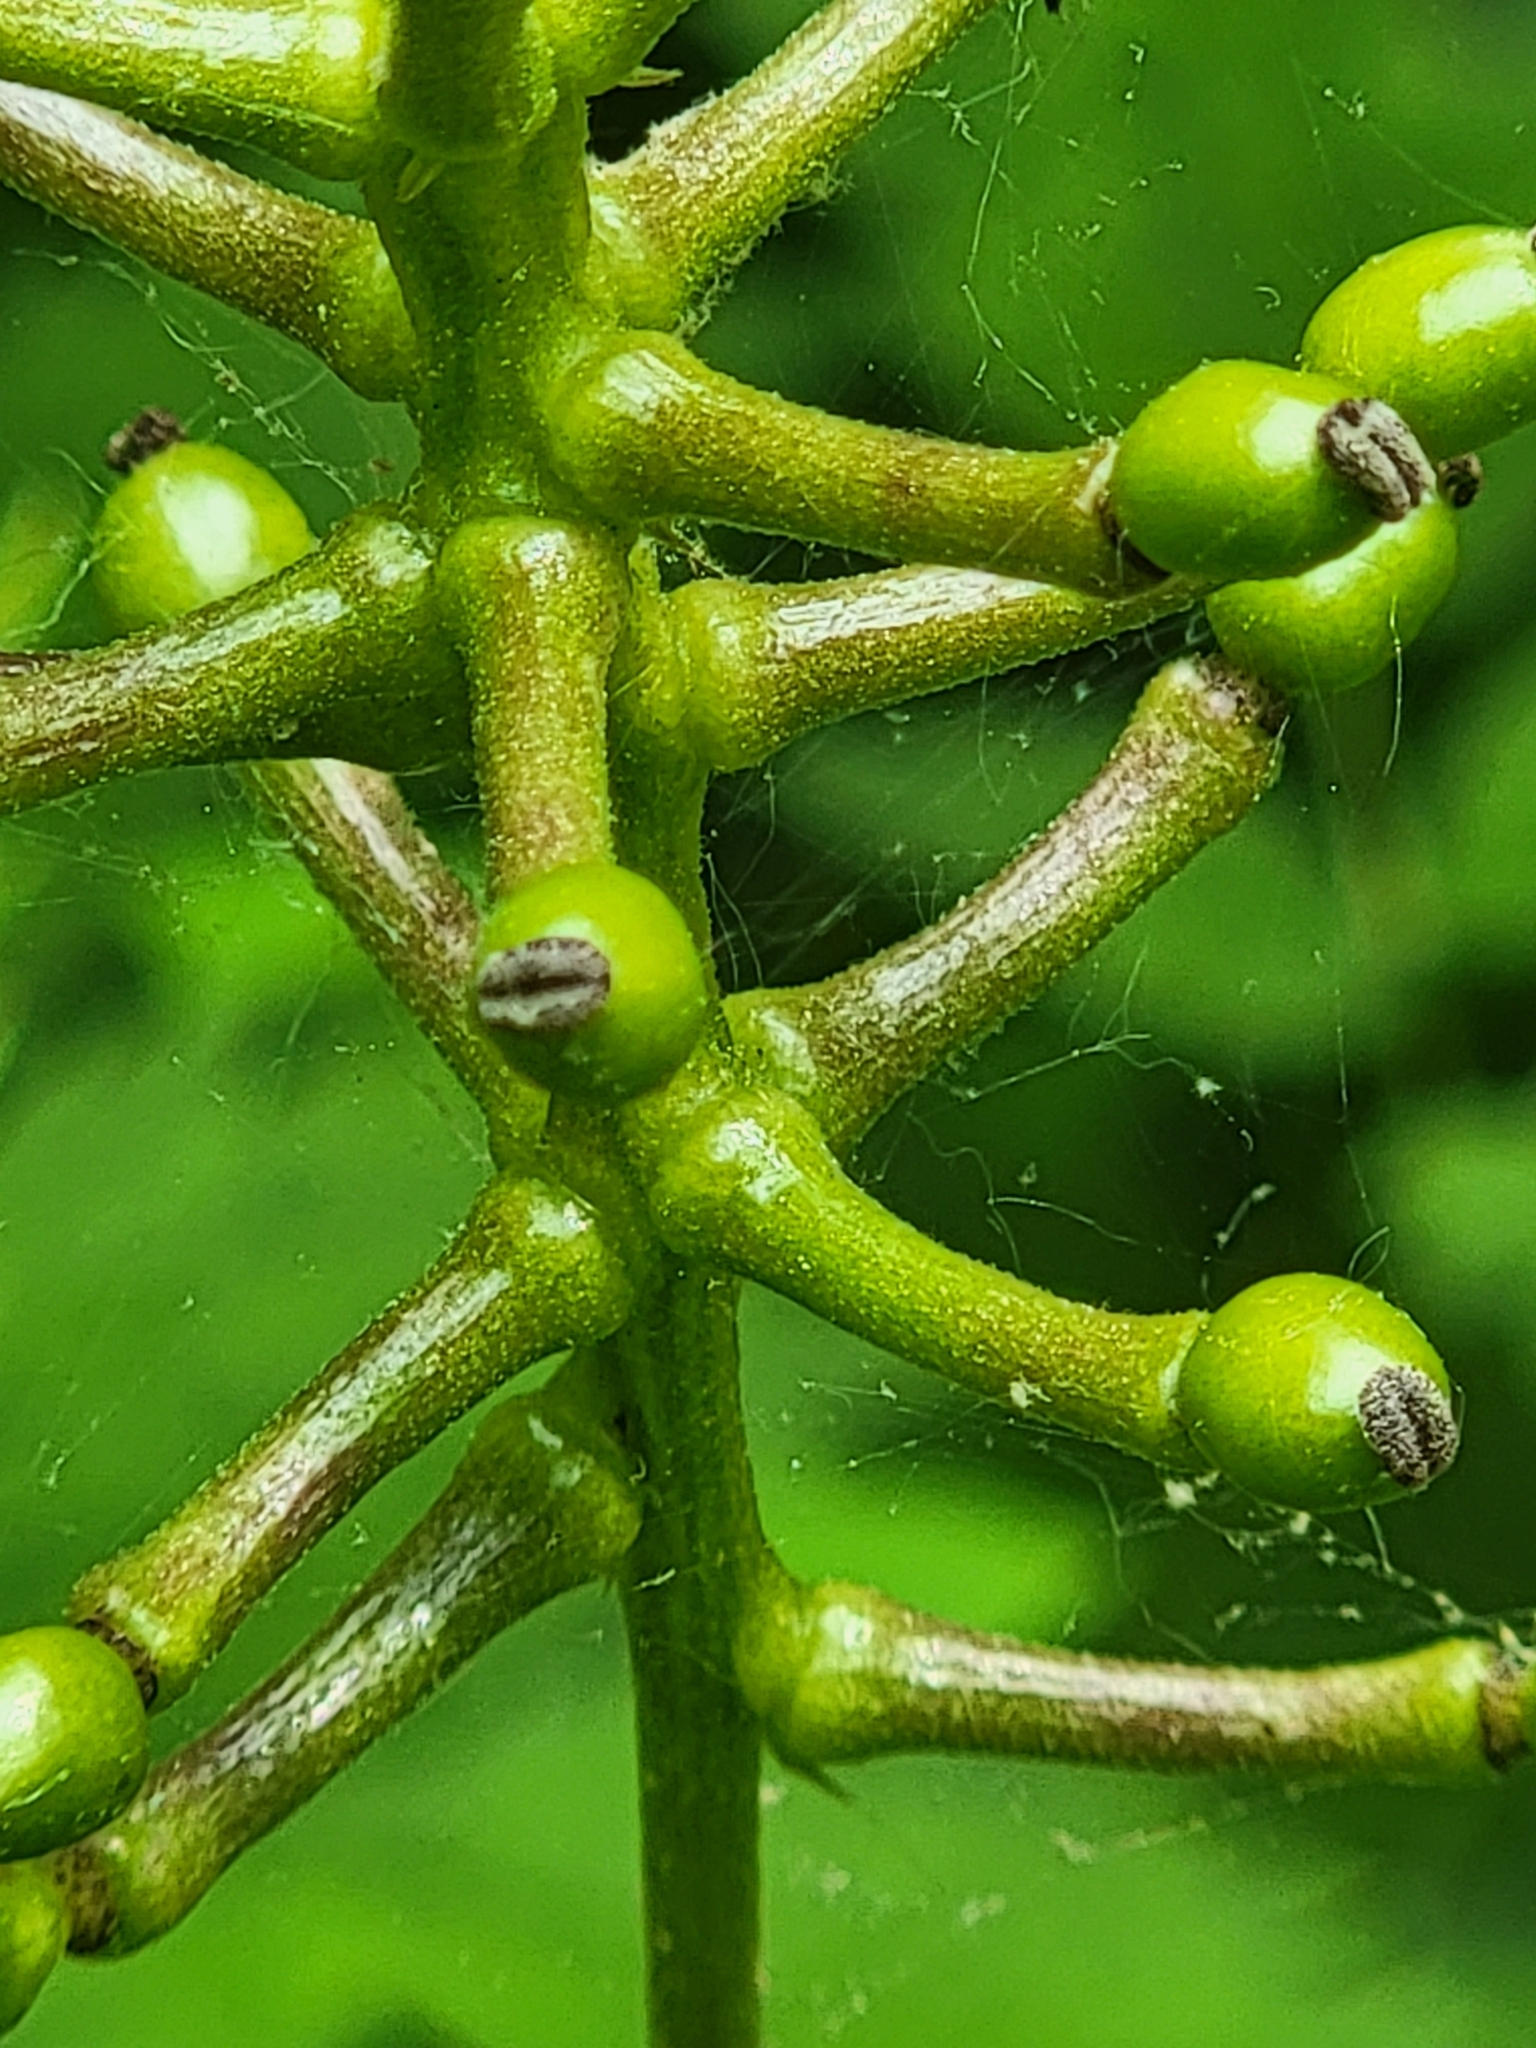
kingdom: Plantae
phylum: Tracheophyta
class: Magnoliopsida
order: Ranunculales
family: Ranunculaceae
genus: Actaea
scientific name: Actaea pachypoda
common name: Doll's-eyes
